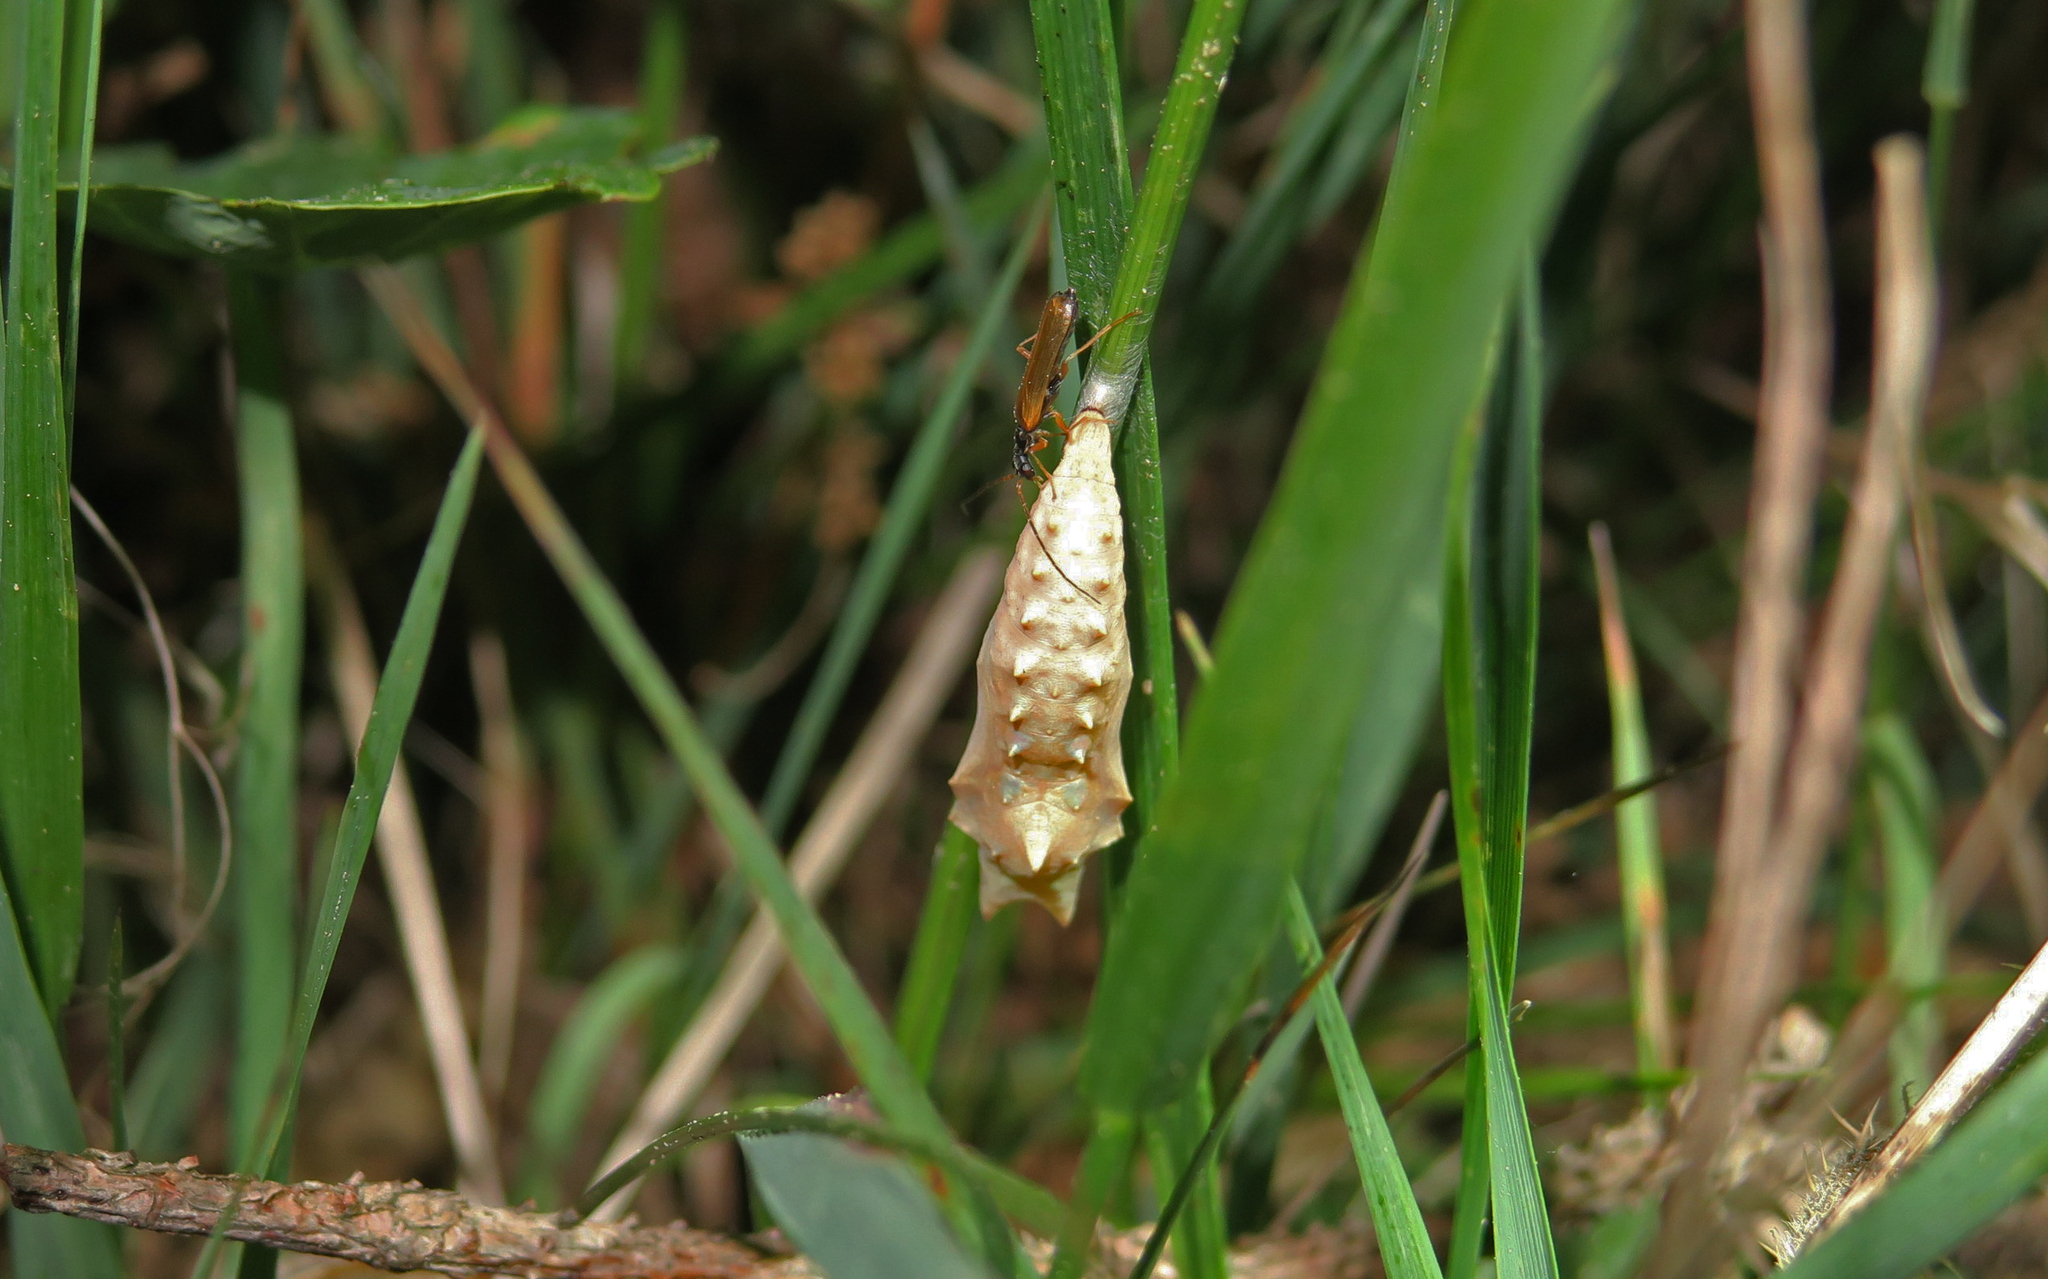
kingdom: Animalia
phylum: Arthropoda
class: Insecta
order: Lepidoptera
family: Nymphalidae
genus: Aglais
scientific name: Aglais urticae
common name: Small tortoiseshell
